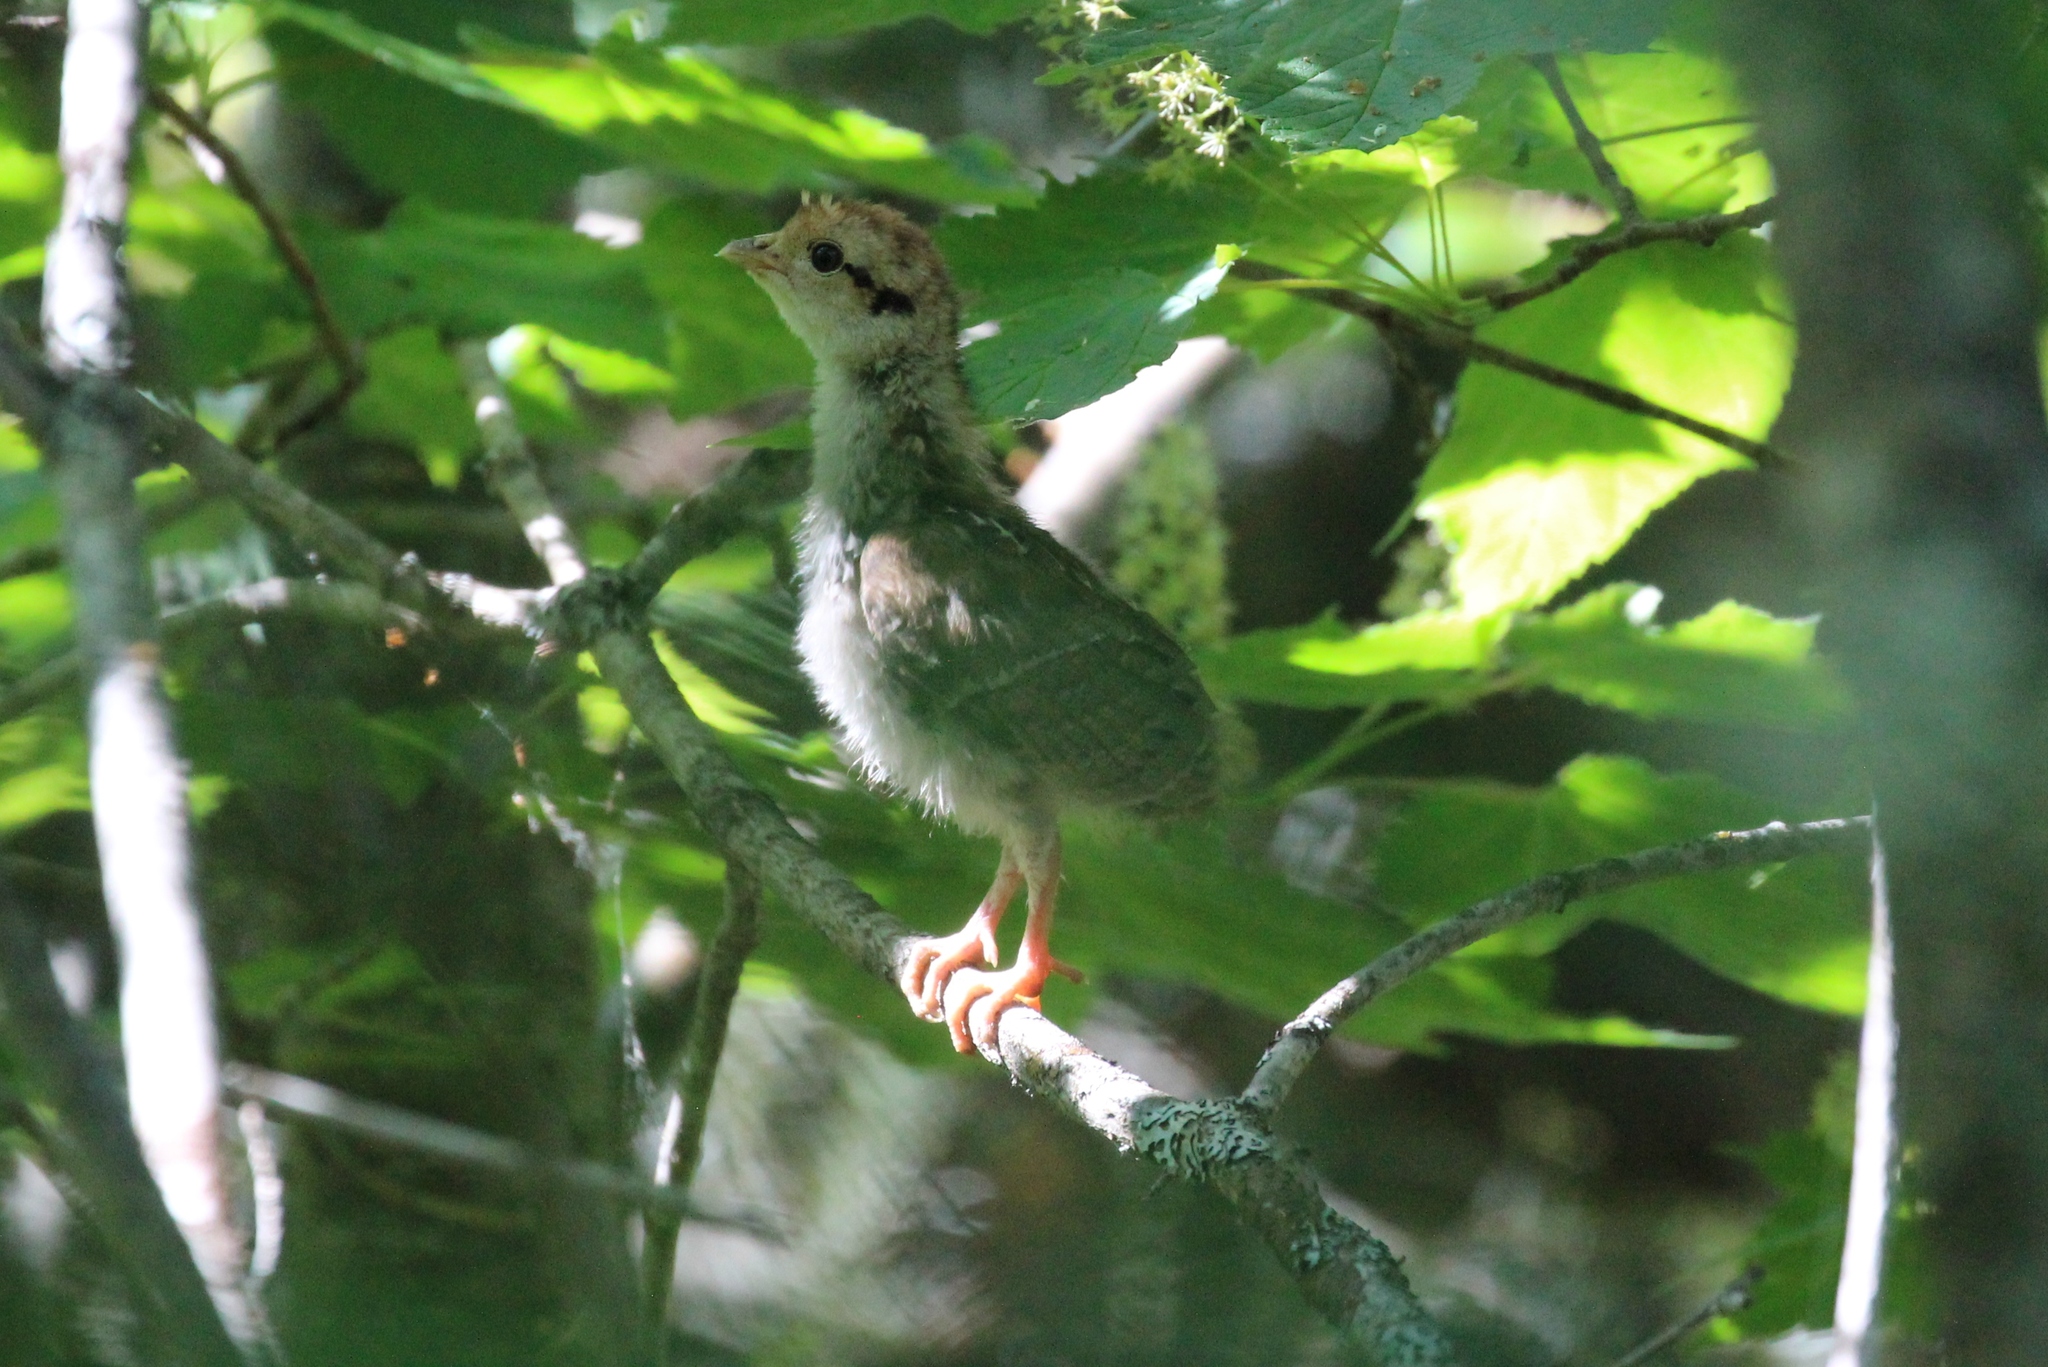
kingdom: Animalia
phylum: Chordata
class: Aves
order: Galliformes
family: Phasianidae
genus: Bonasa
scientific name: Bonasa umbellus
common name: Ruffed grouse
